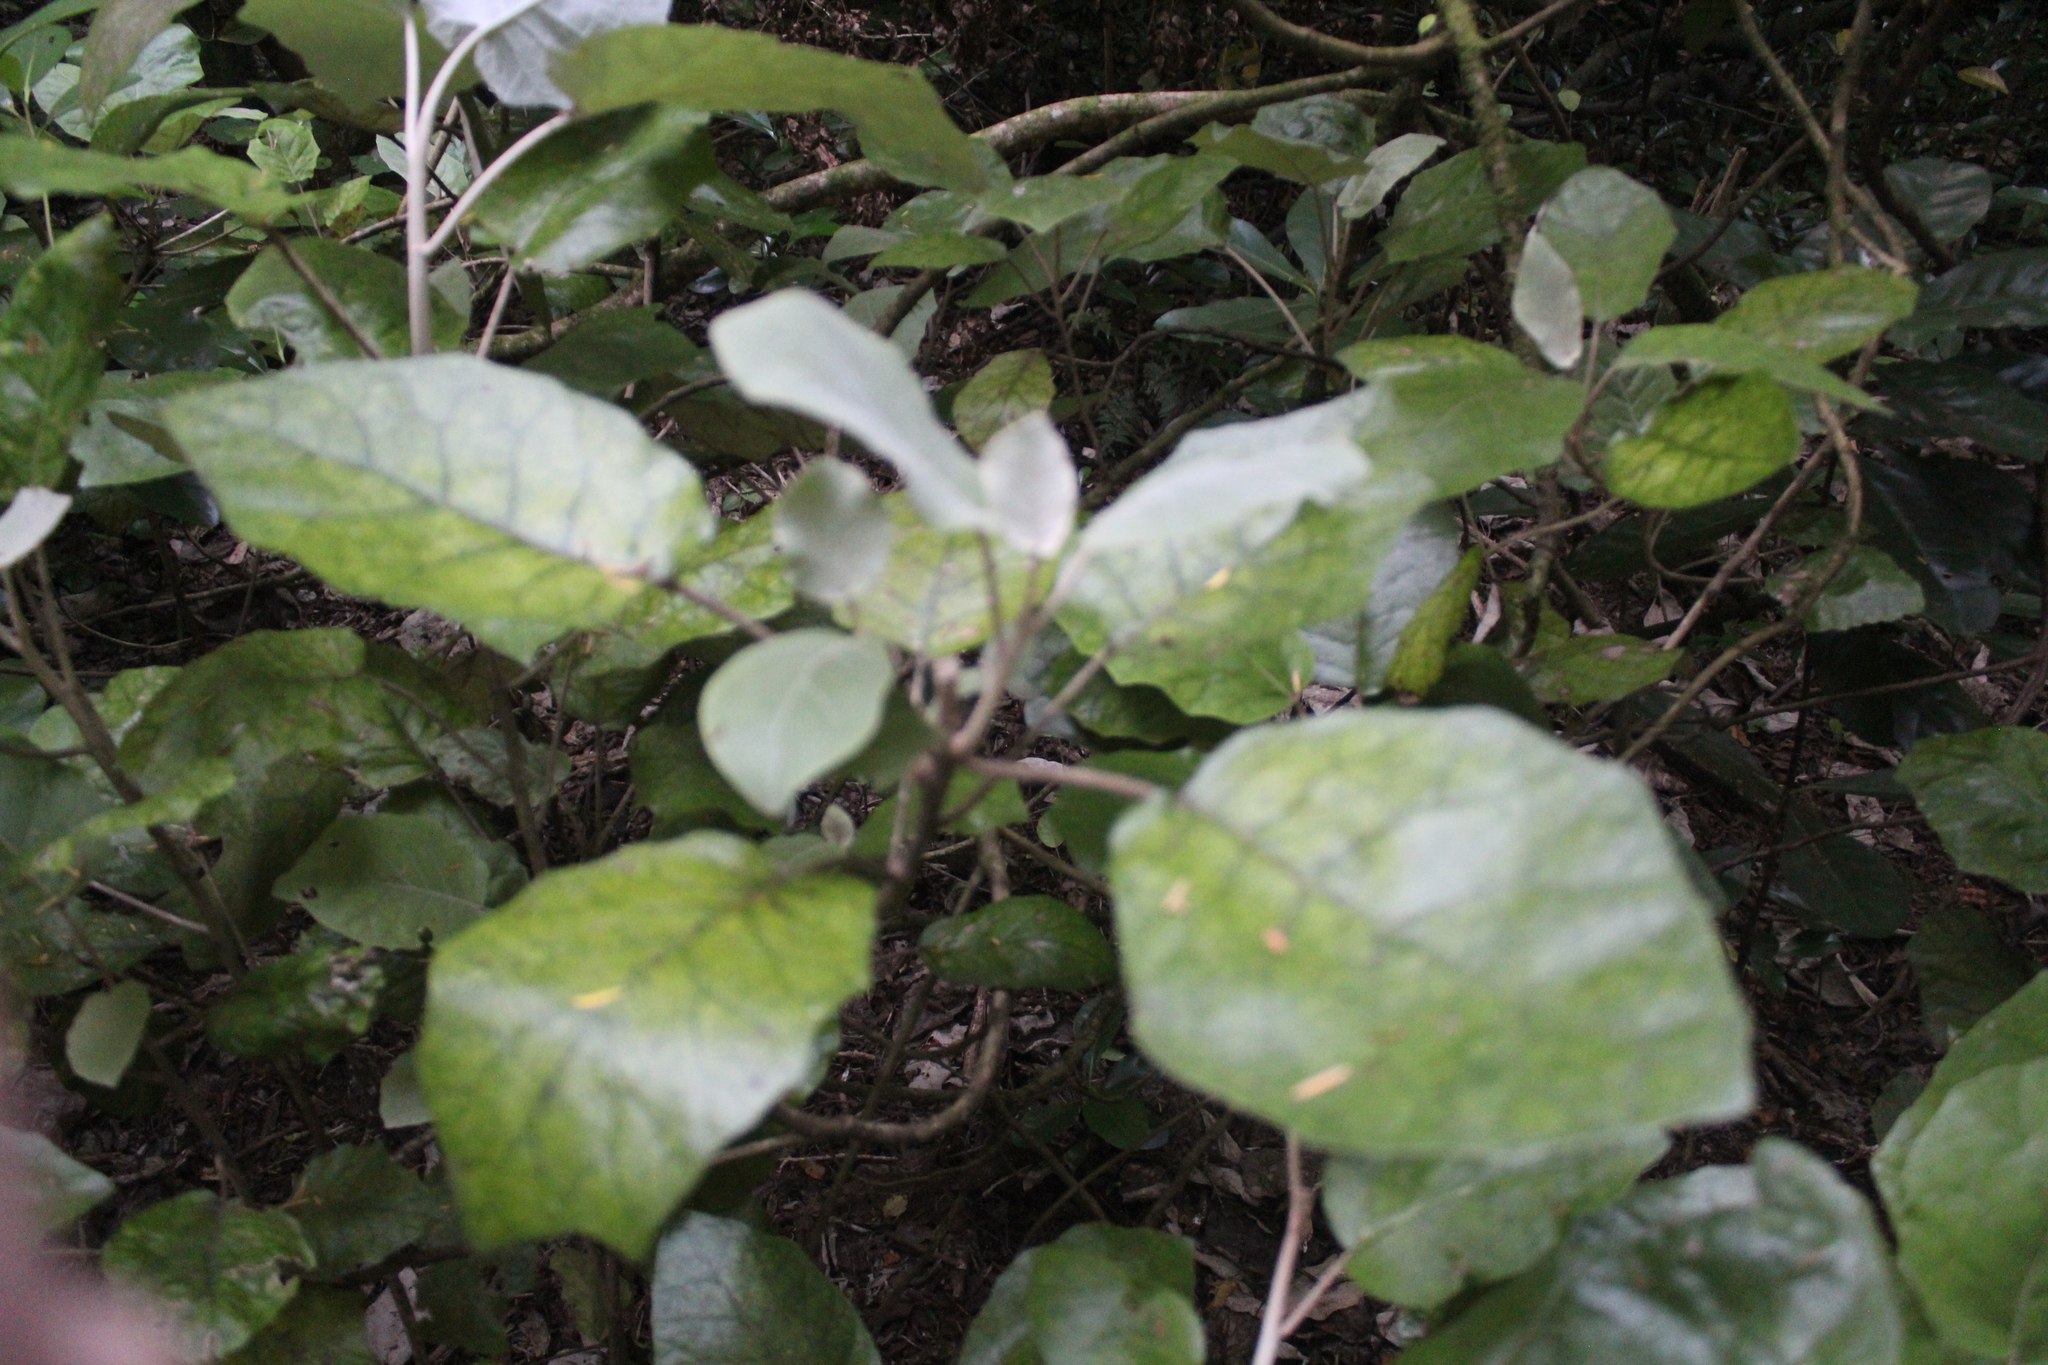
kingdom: Plantae
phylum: Tracheophyta
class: Magnoliopsida
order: Asterales
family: Asteraceae
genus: Brachyglottis
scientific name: Brachyglottis repanda
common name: Hedge ragwort
